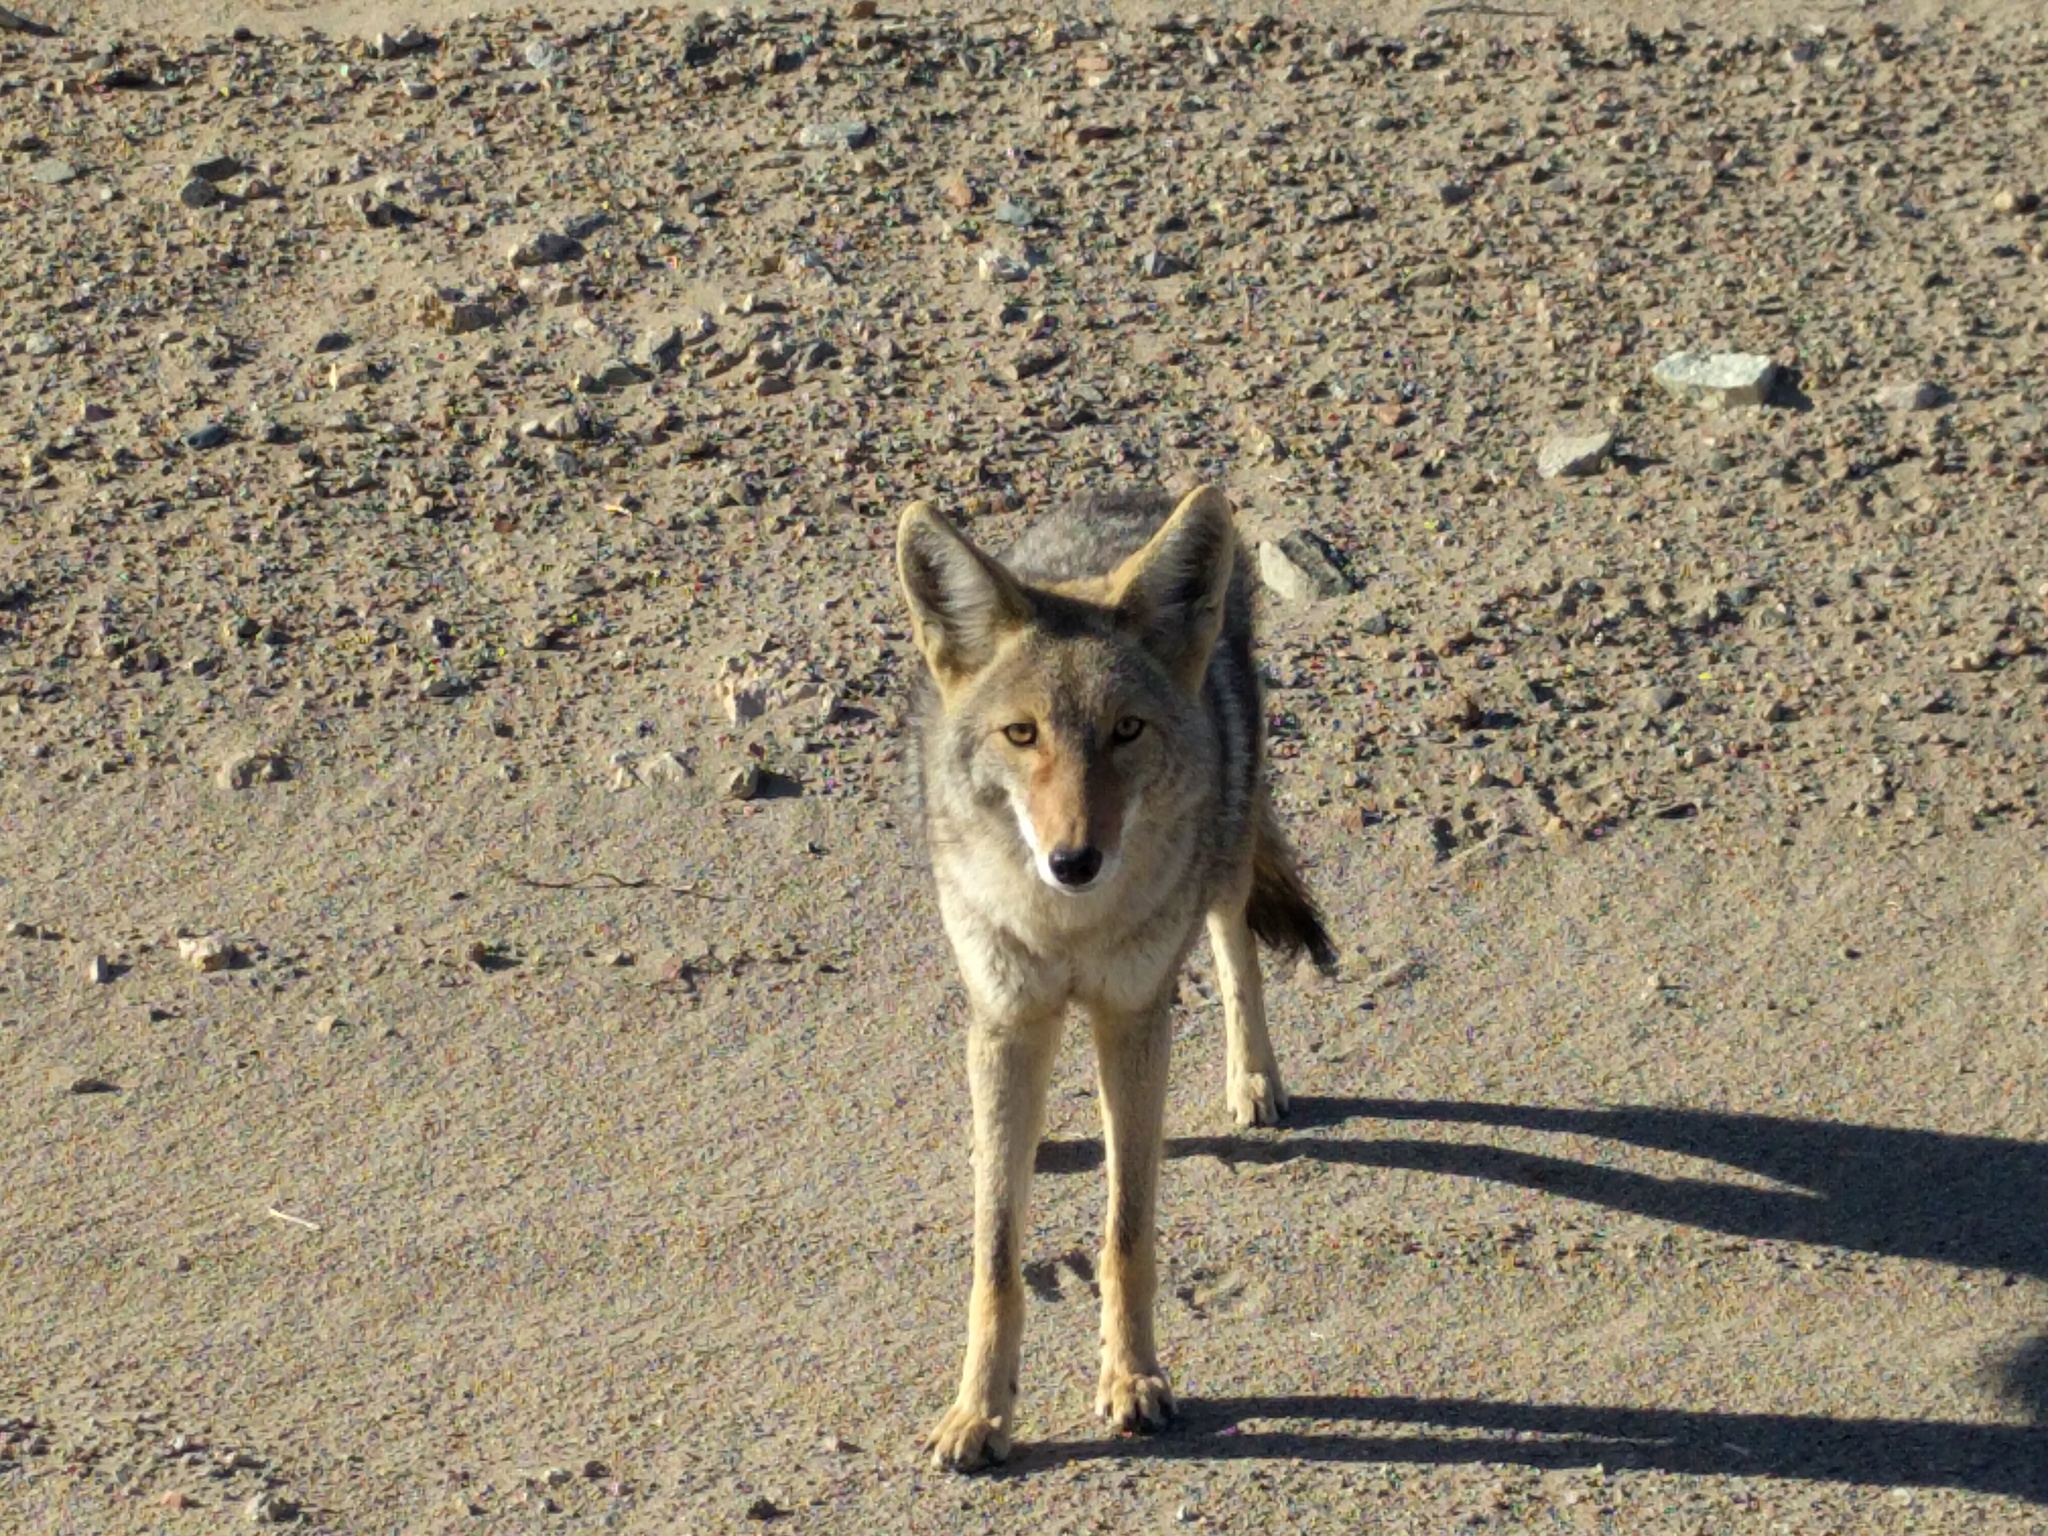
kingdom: Animalia
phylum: Chordata
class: Mammalia
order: Carnivora
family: Canidae
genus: Canis
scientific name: Canis latrans
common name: Coyote
